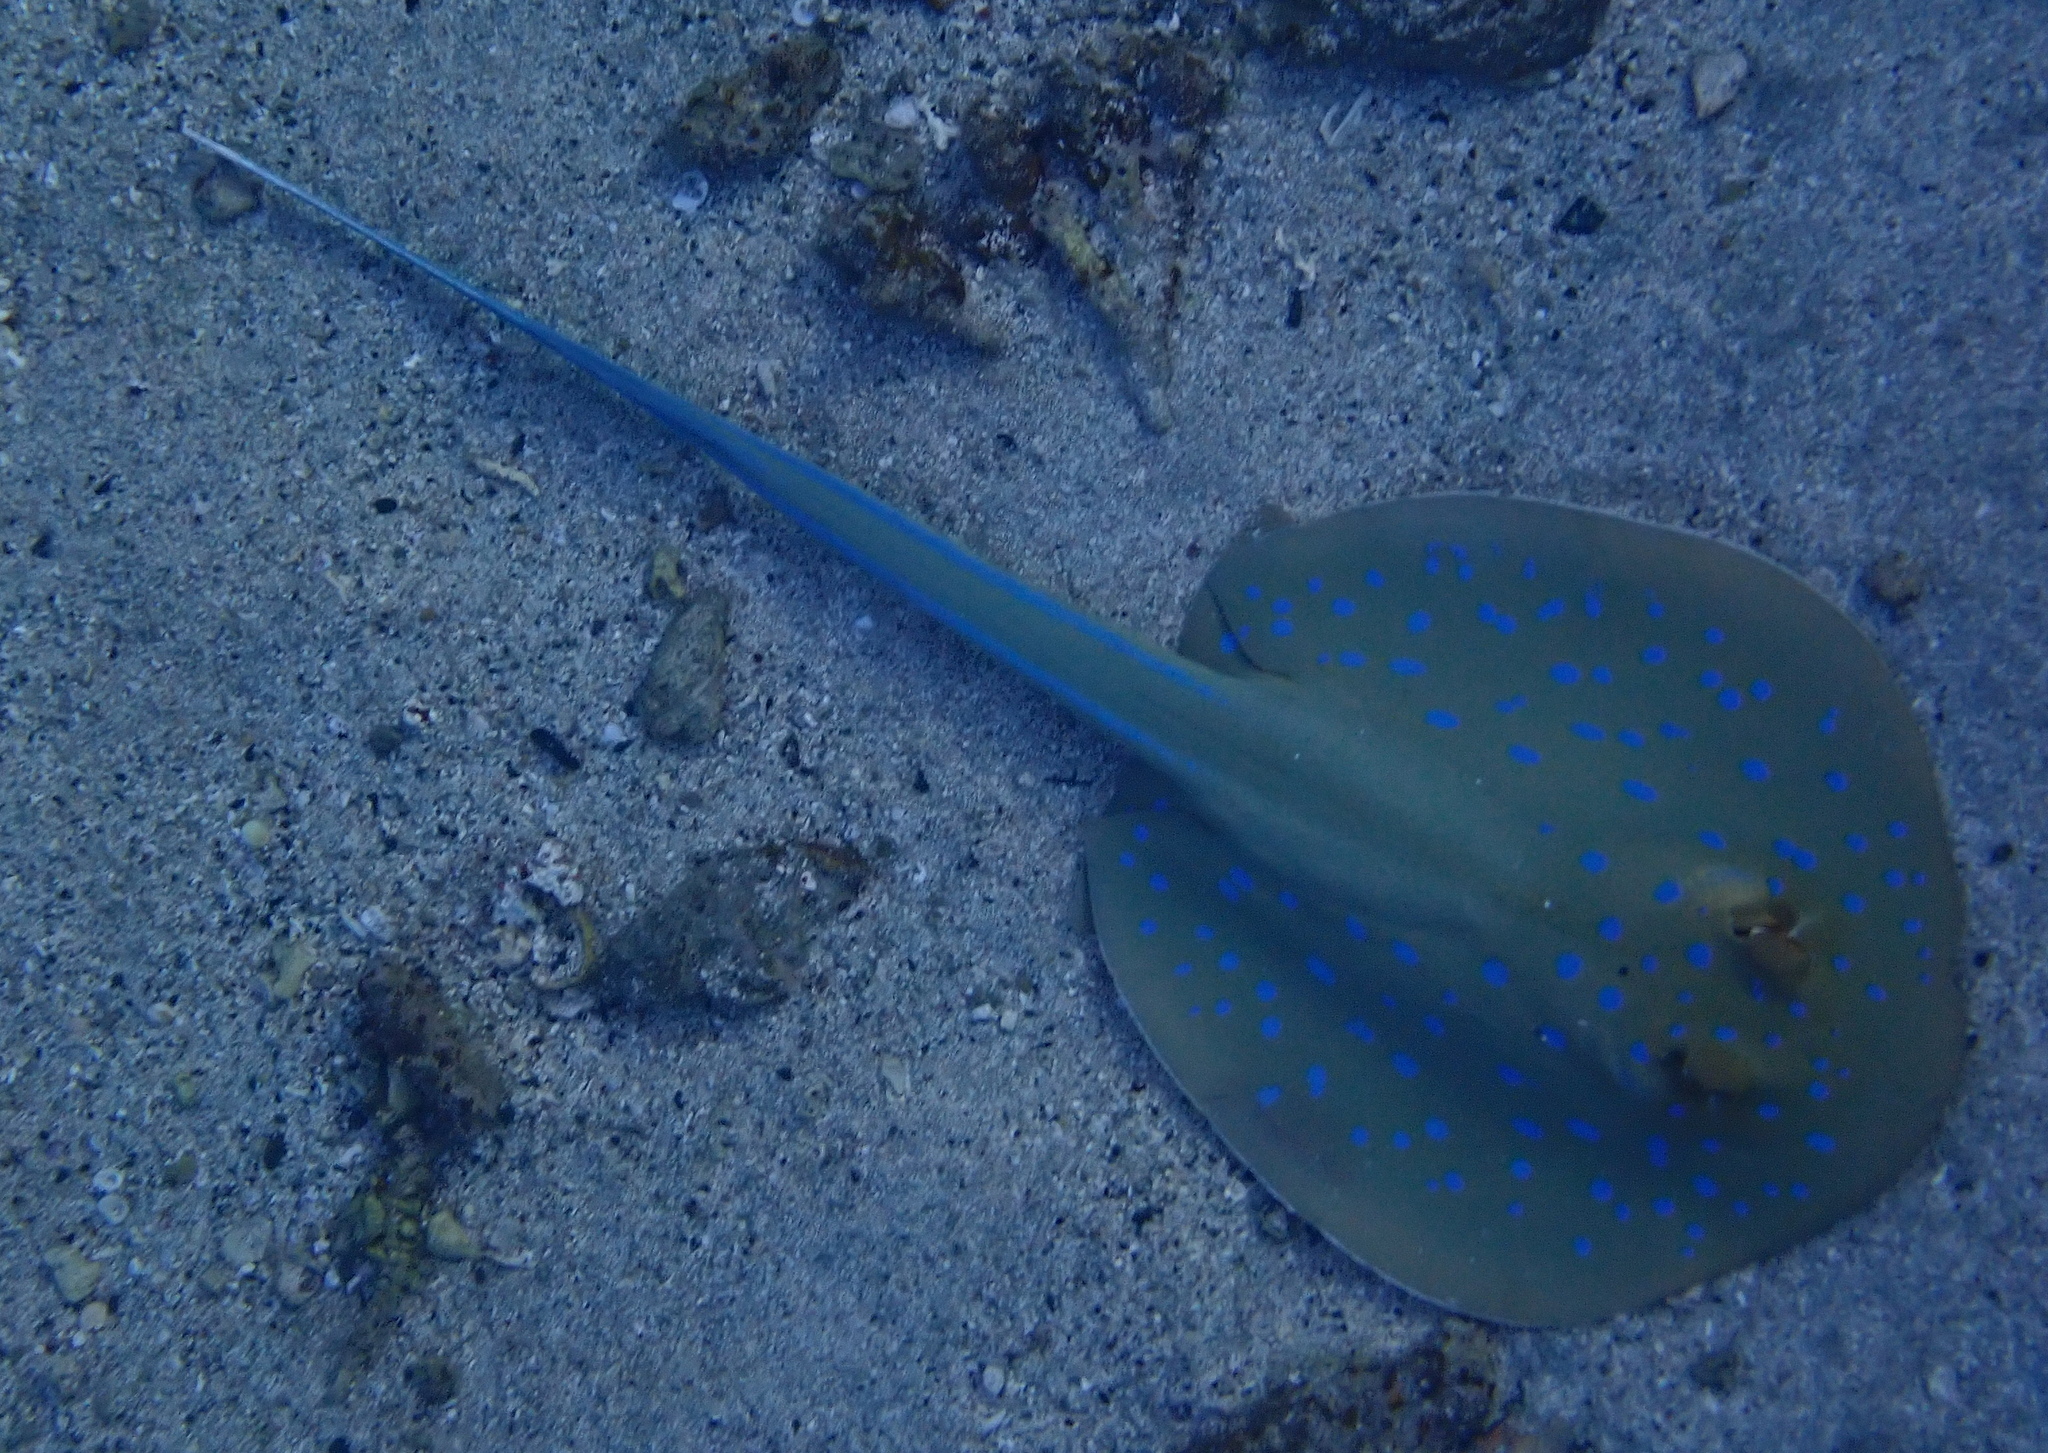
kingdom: Animalia
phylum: Chordata
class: Elasmobranchii
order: Myliobatiformes
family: Dasyatidae
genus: Taeniura
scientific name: Taeniura lymma
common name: Bluespotted ribbontail ray
